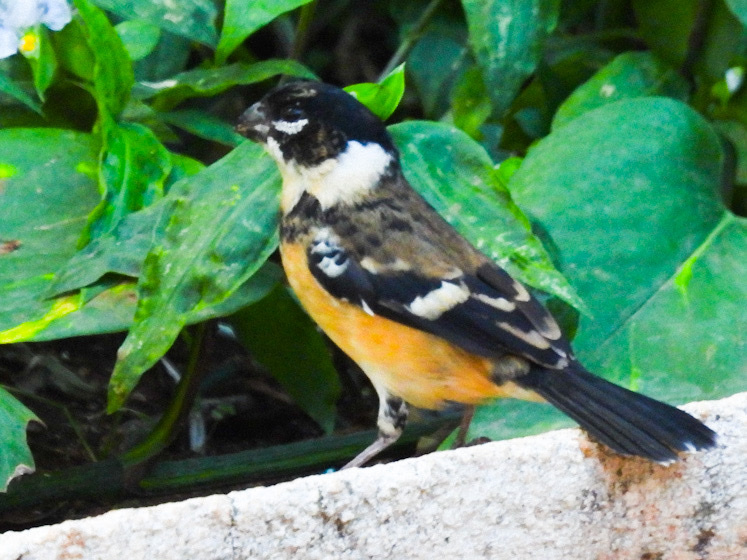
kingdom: Animalia
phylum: Chordata
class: Aves
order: Passeriformes
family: Thraupidae
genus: Sporophila
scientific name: Sporophila morelleti
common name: Morelet's seedeater
